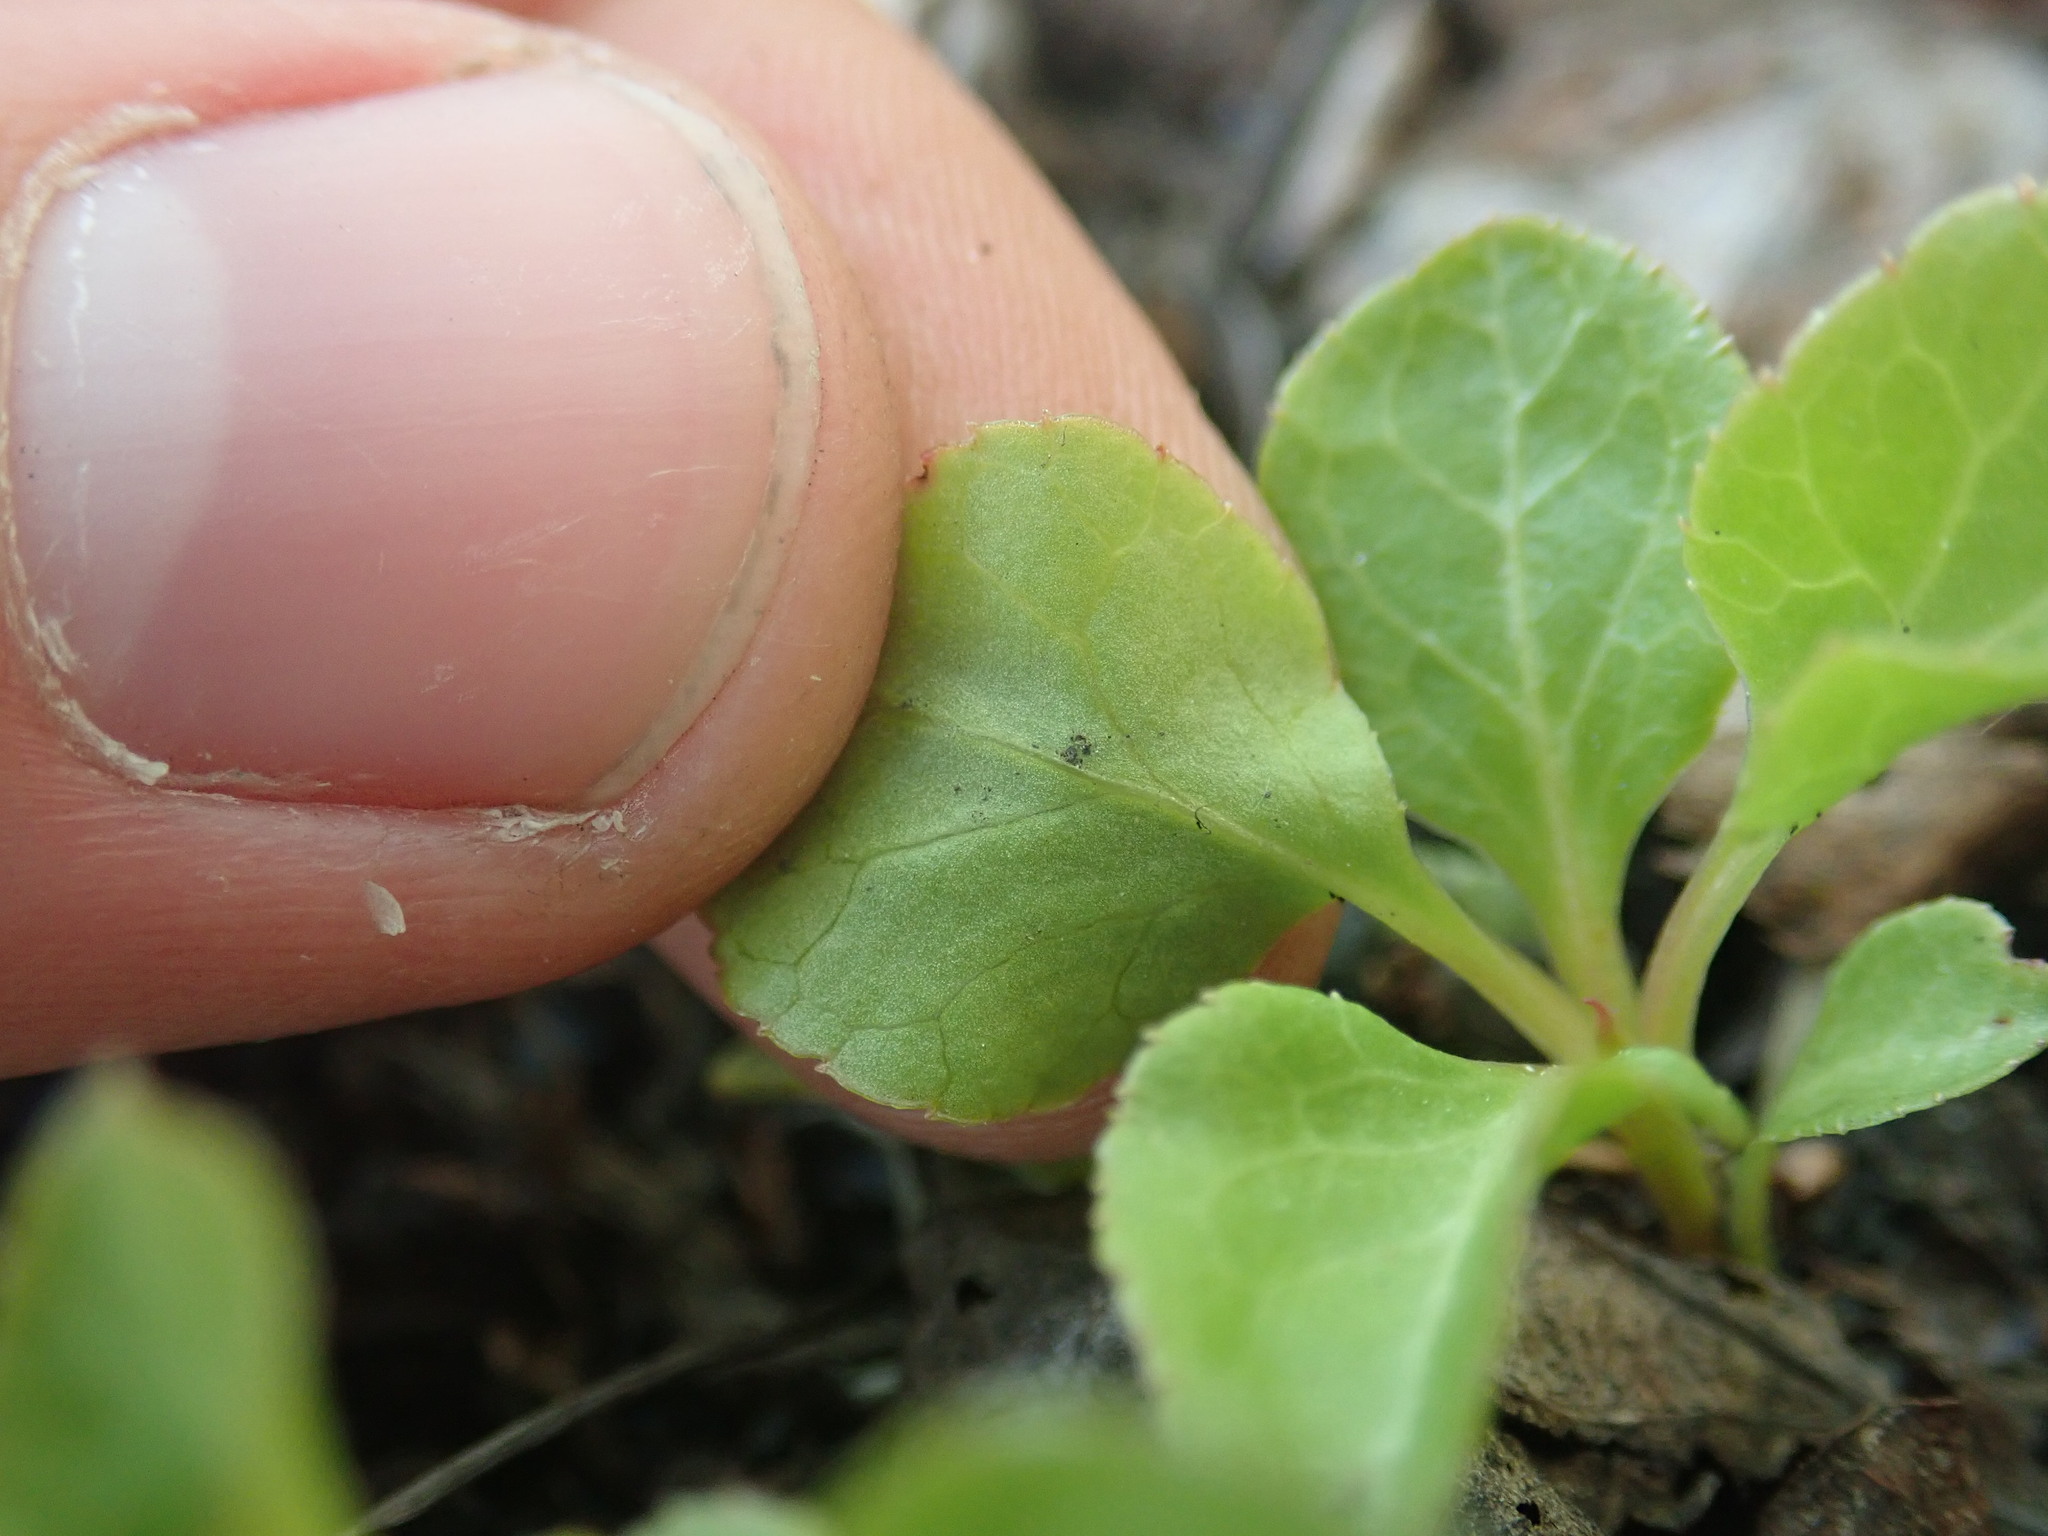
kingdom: Plantae
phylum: Tracheophyta
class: Magnoliopsida
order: Ericales
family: Ericaceae
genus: Pyrola
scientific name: Pyrola
